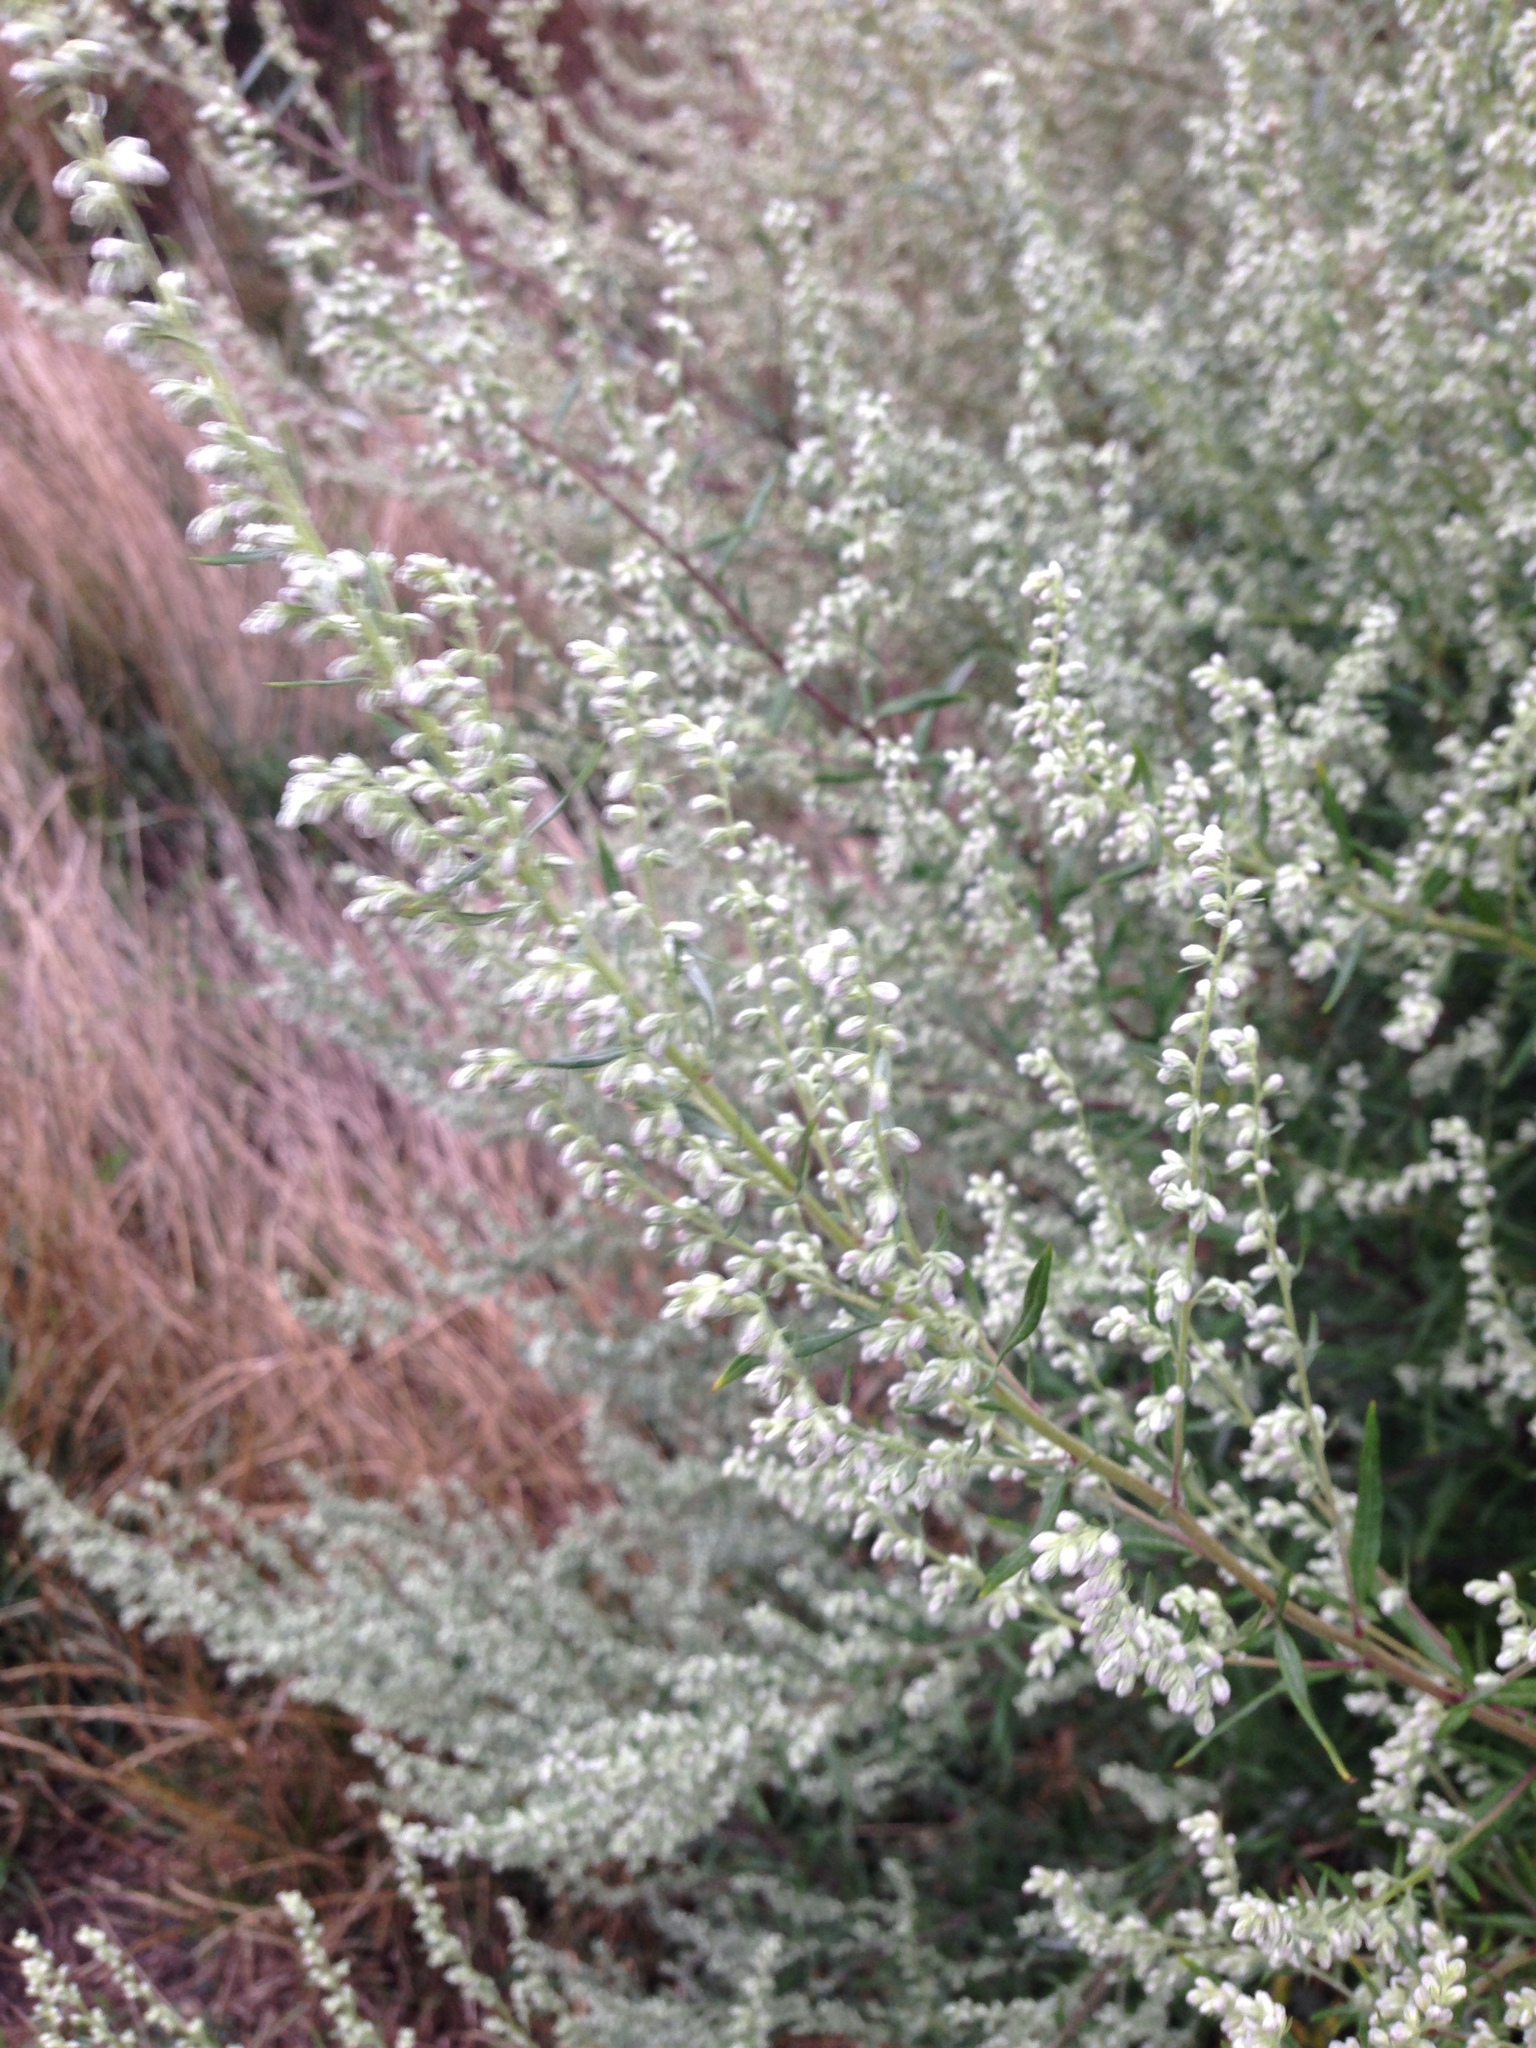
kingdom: Plantae
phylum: Tracheophyta
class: Magnoliopsida
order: Asterales
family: Asteraceae
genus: Artemisia
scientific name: Artemisia vulgaris
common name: Mugwort
